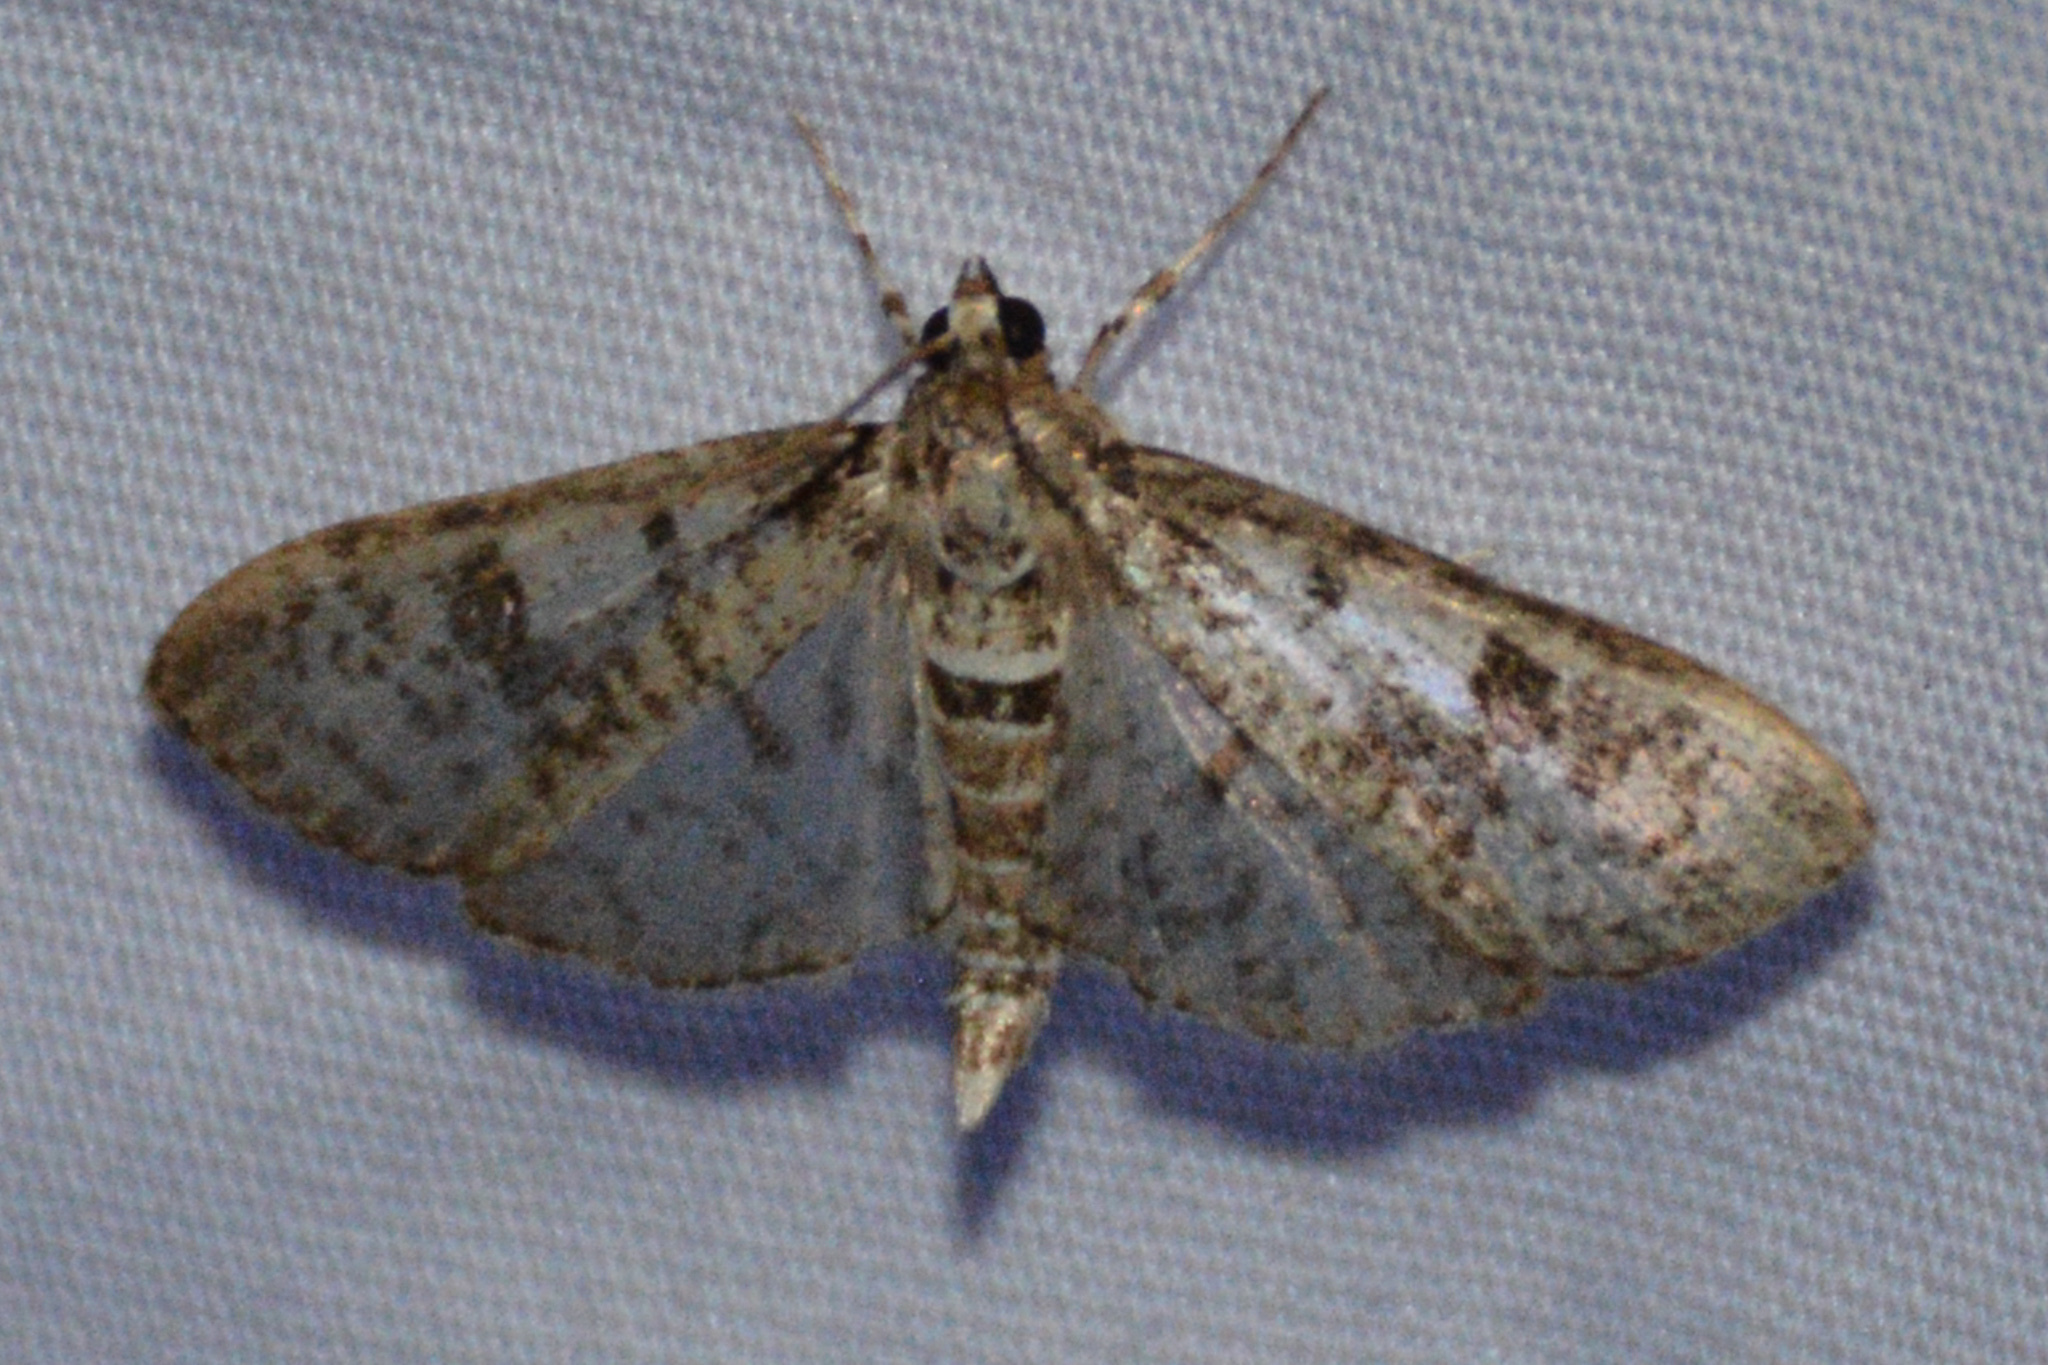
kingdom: Animalia
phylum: Arthropoda
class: Insecta
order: Lepidoptera
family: Crambidae
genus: Palpita
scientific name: Palpita magniferalis
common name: Splendid palpita moth
